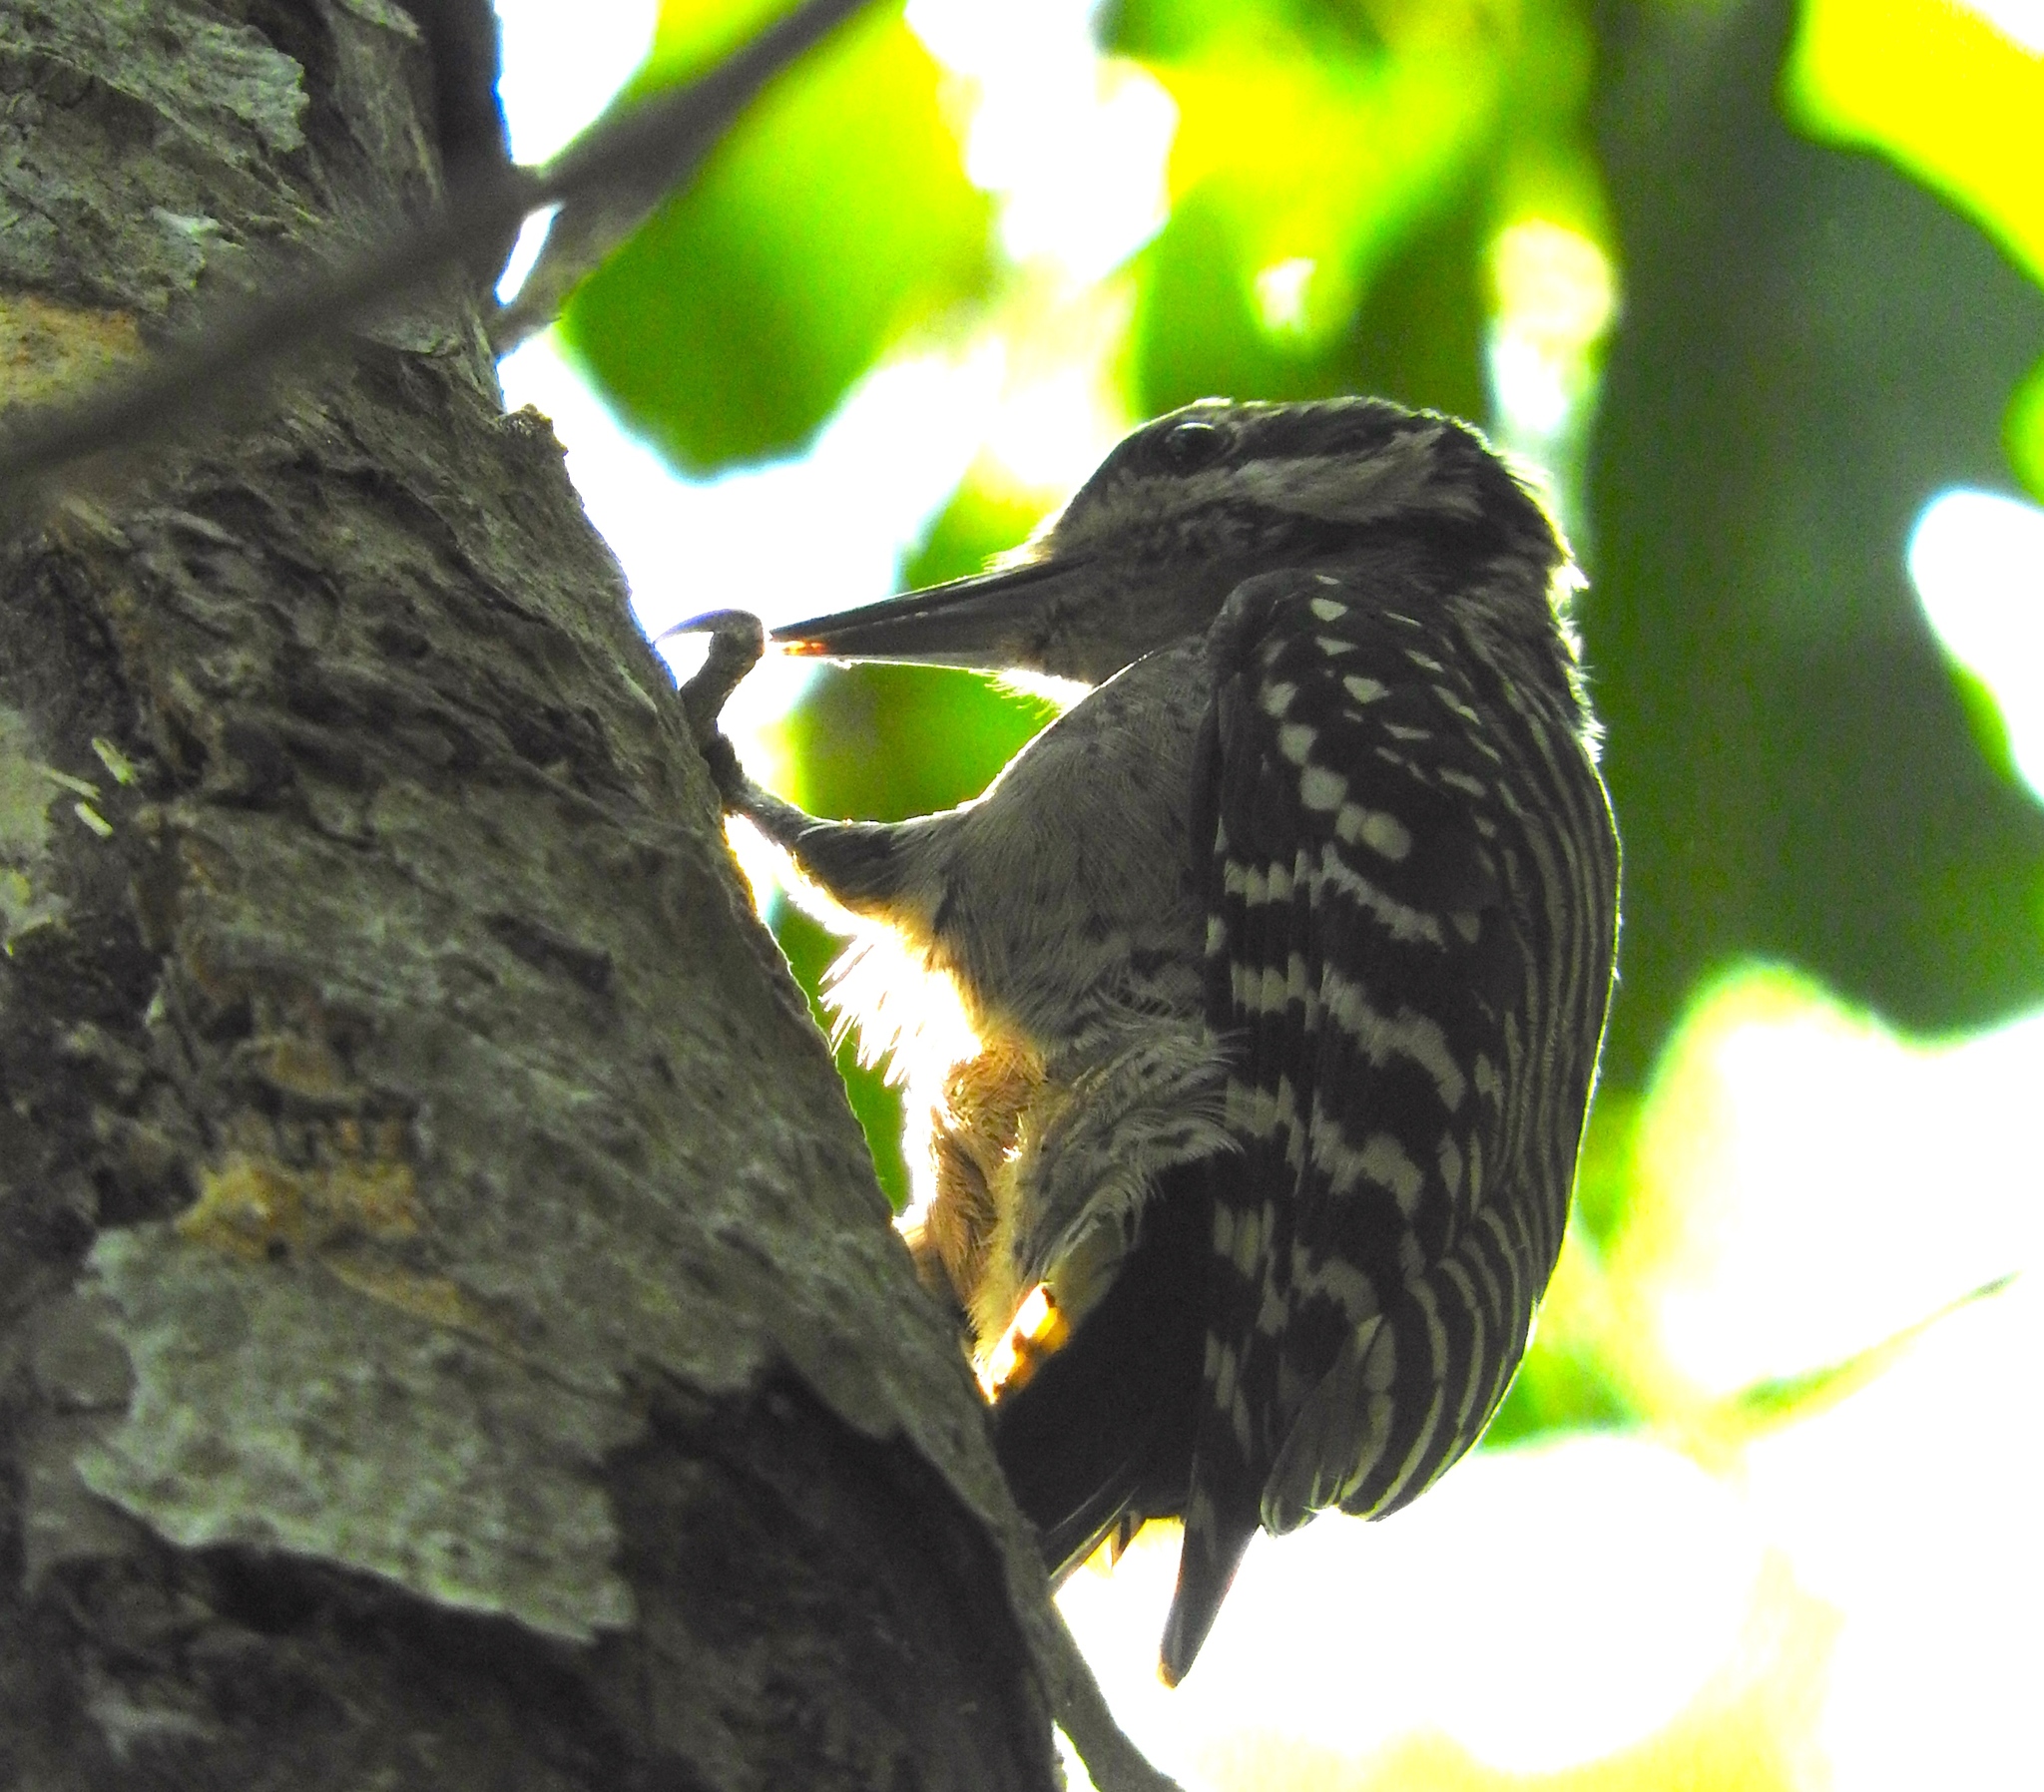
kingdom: Animalia
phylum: Chordata
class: Aves
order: Piciformes
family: Picidae
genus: Dryobates
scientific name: Dryobates scalaris
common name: Ladder-backed woodpecker
